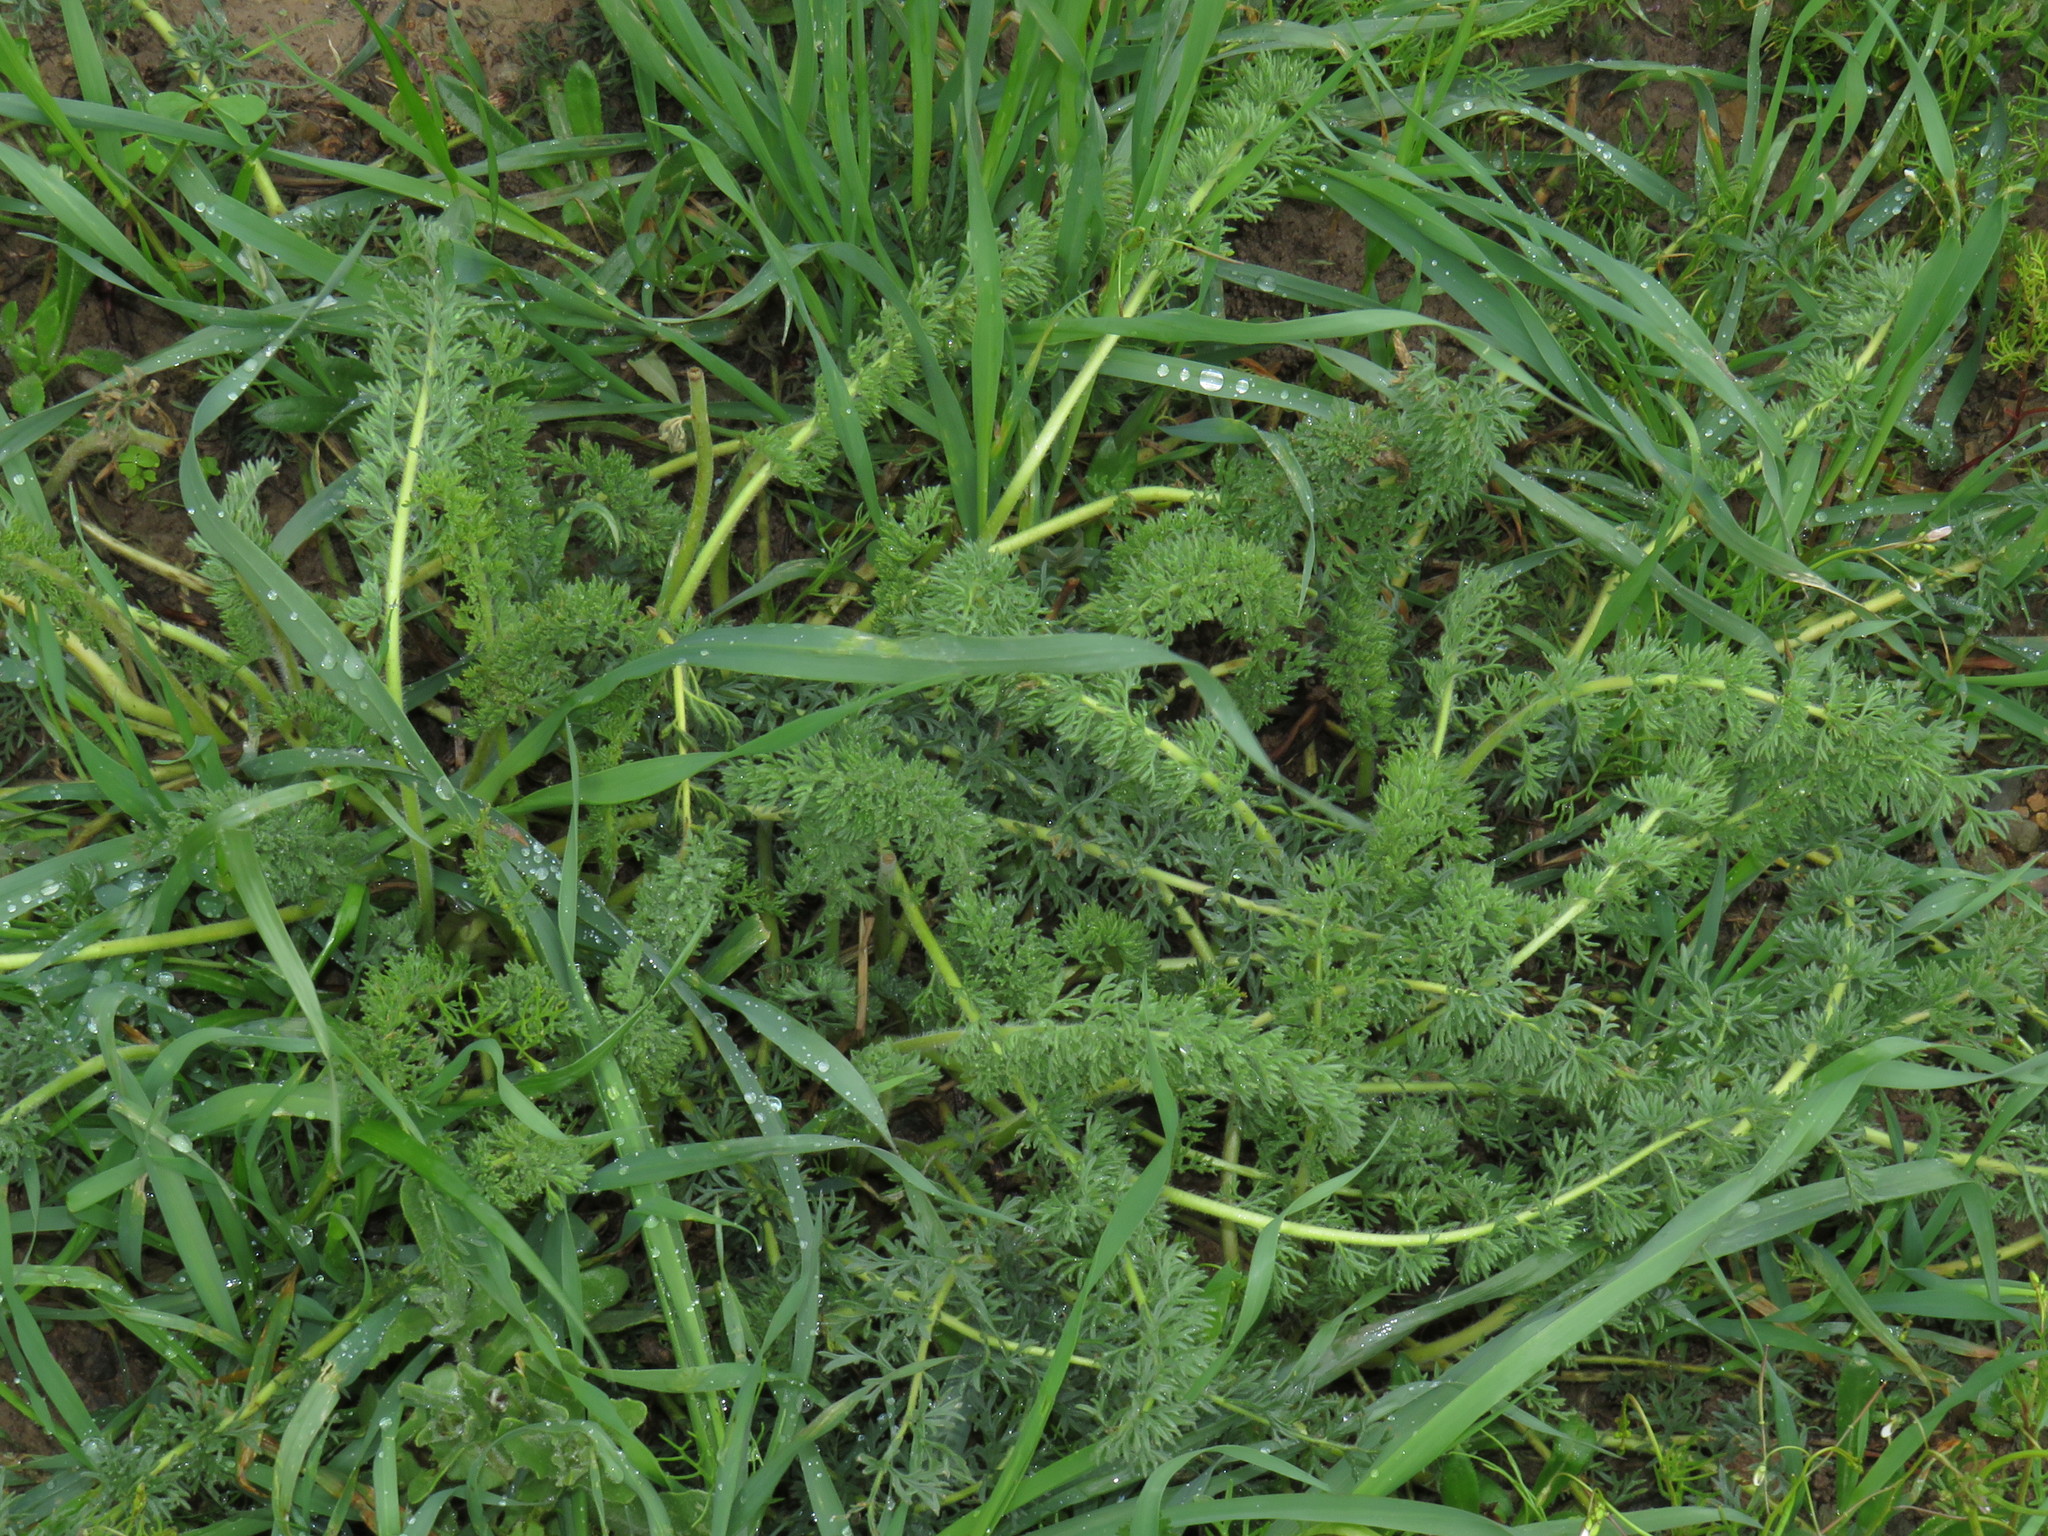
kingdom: Plantae
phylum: Tracheophyta
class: Magnoliopsida
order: Geraniales
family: Geraniaceae
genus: Pelargonium
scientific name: Pelargonium rapaceum
